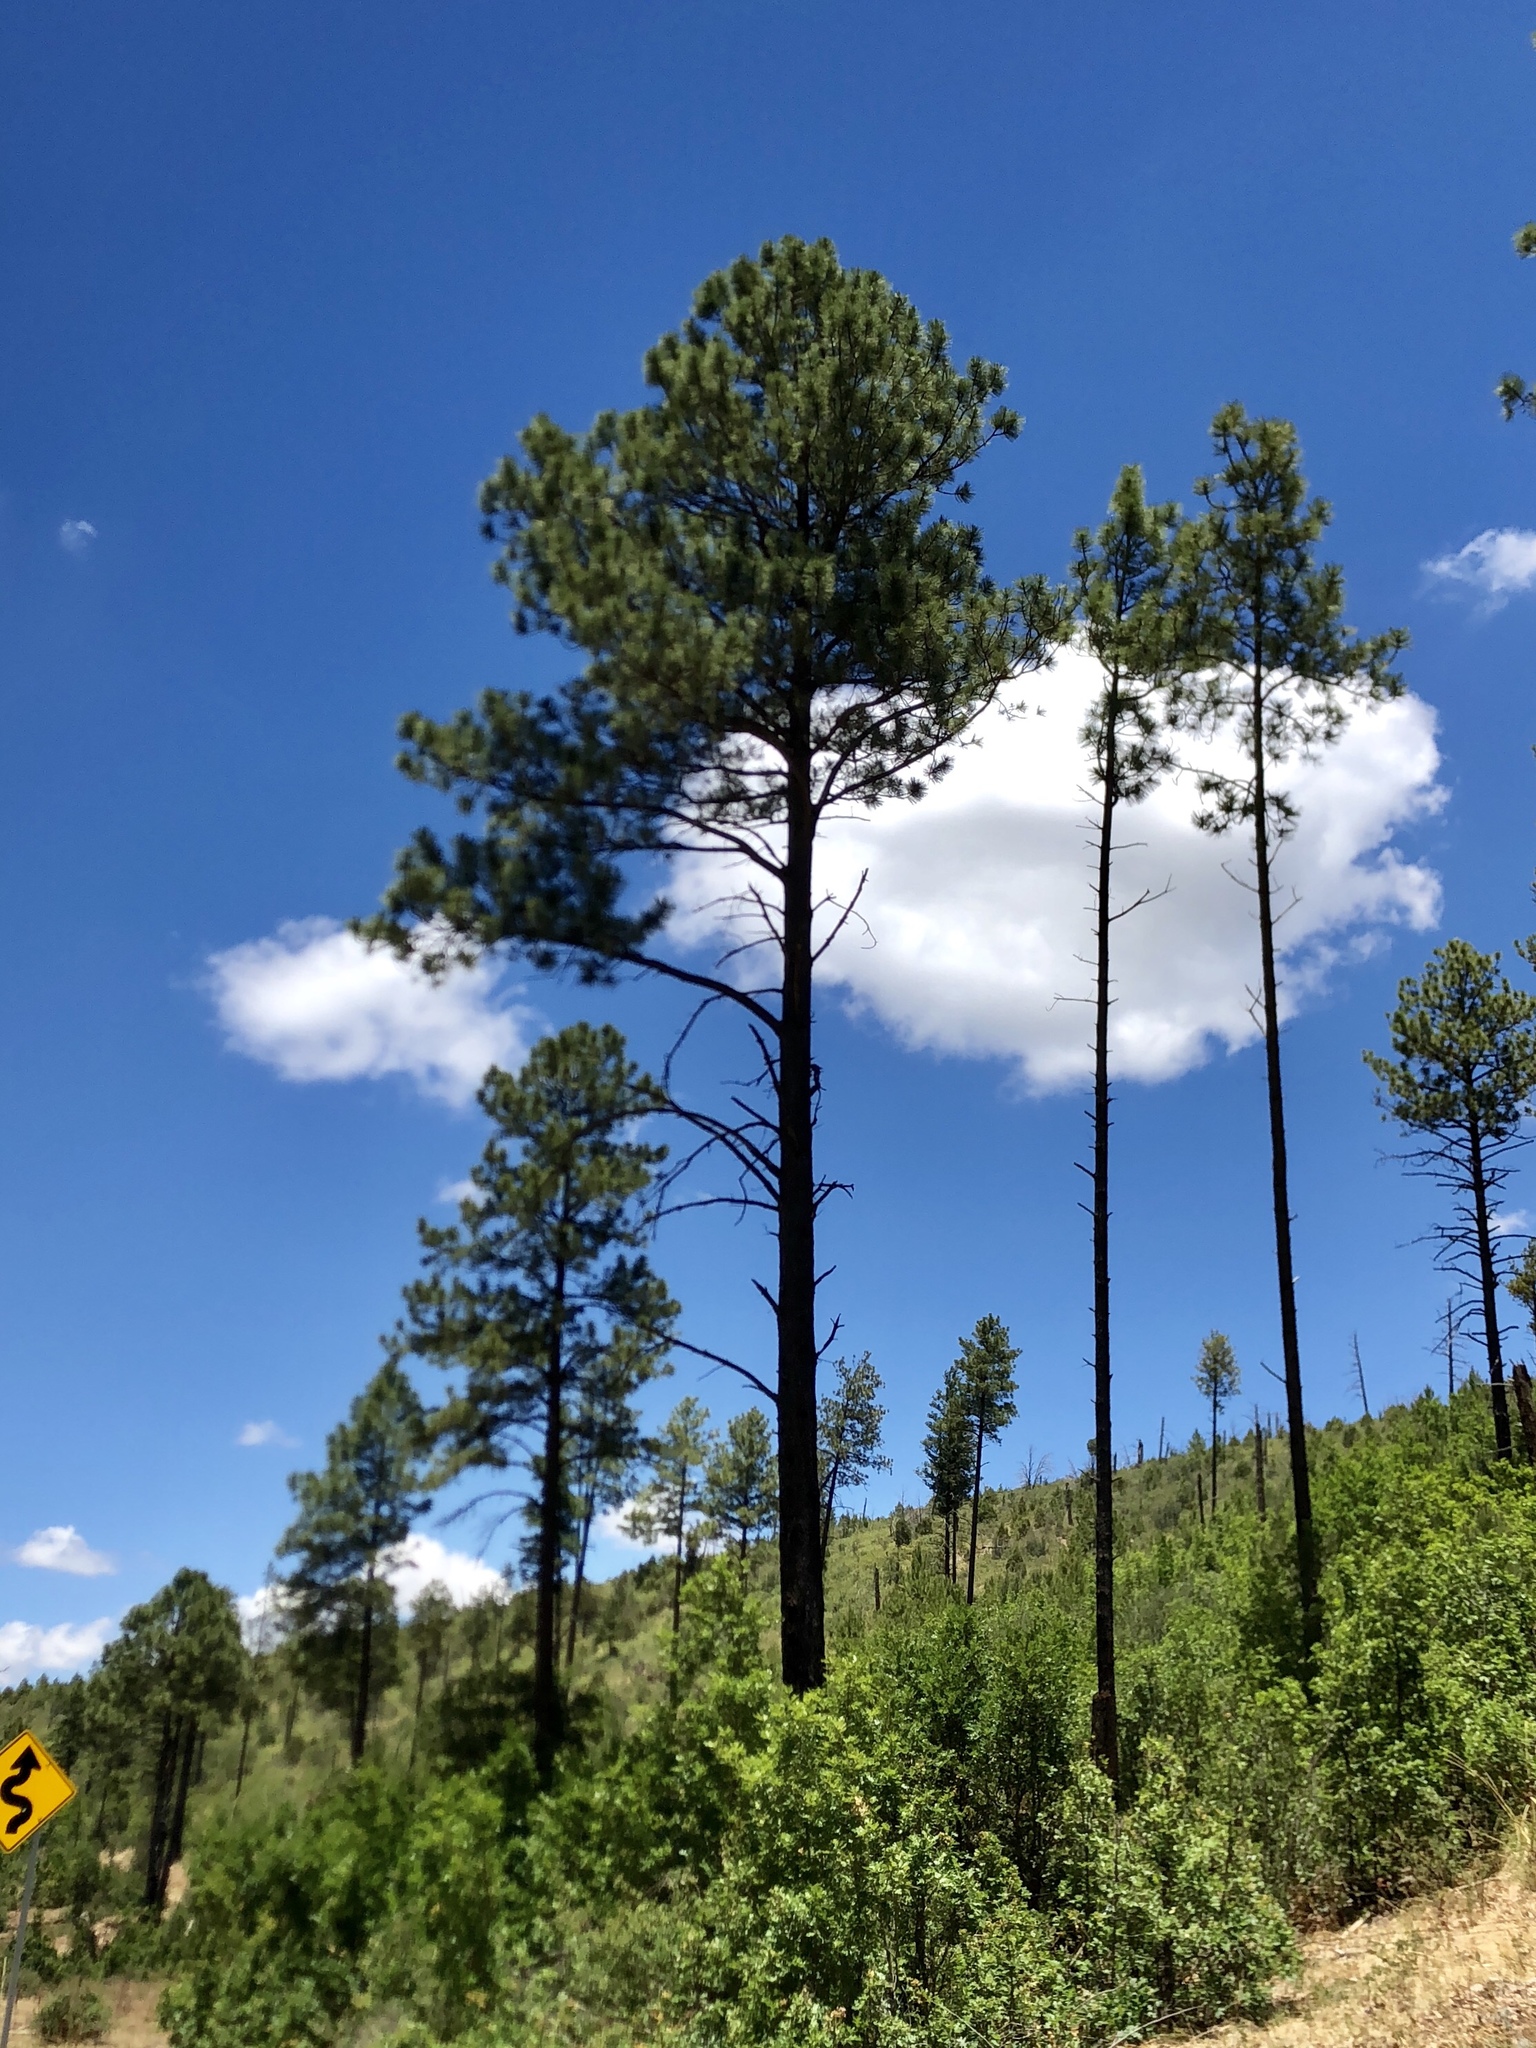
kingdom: Plantae
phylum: Tracheophyta
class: Pinopsida
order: Pinales
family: Pinaceae
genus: Pinus
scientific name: Pinus ponderosa
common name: Western yellow-pine
